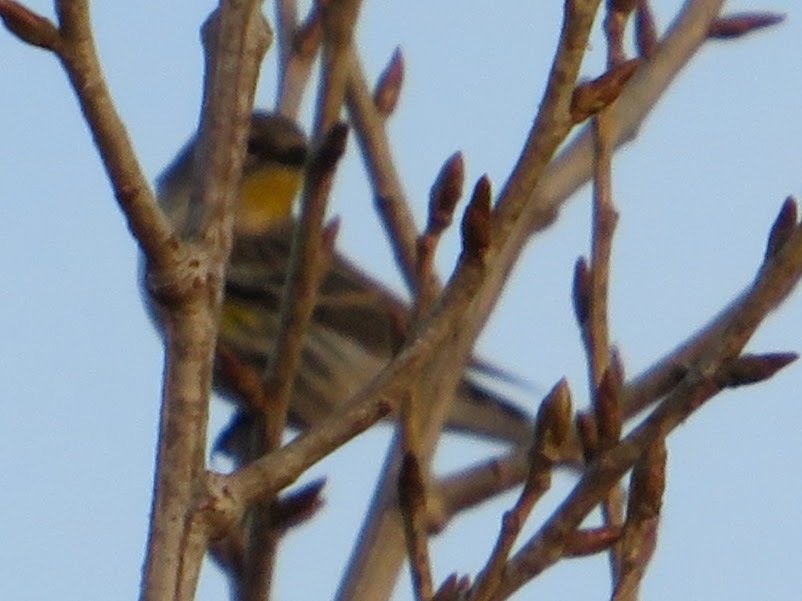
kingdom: Animalia
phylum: Chordata
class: Aves
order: Passeriformes
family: Parulidae
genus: Setophaga
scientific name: Setophaga coronata
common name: Myrtle warbler
